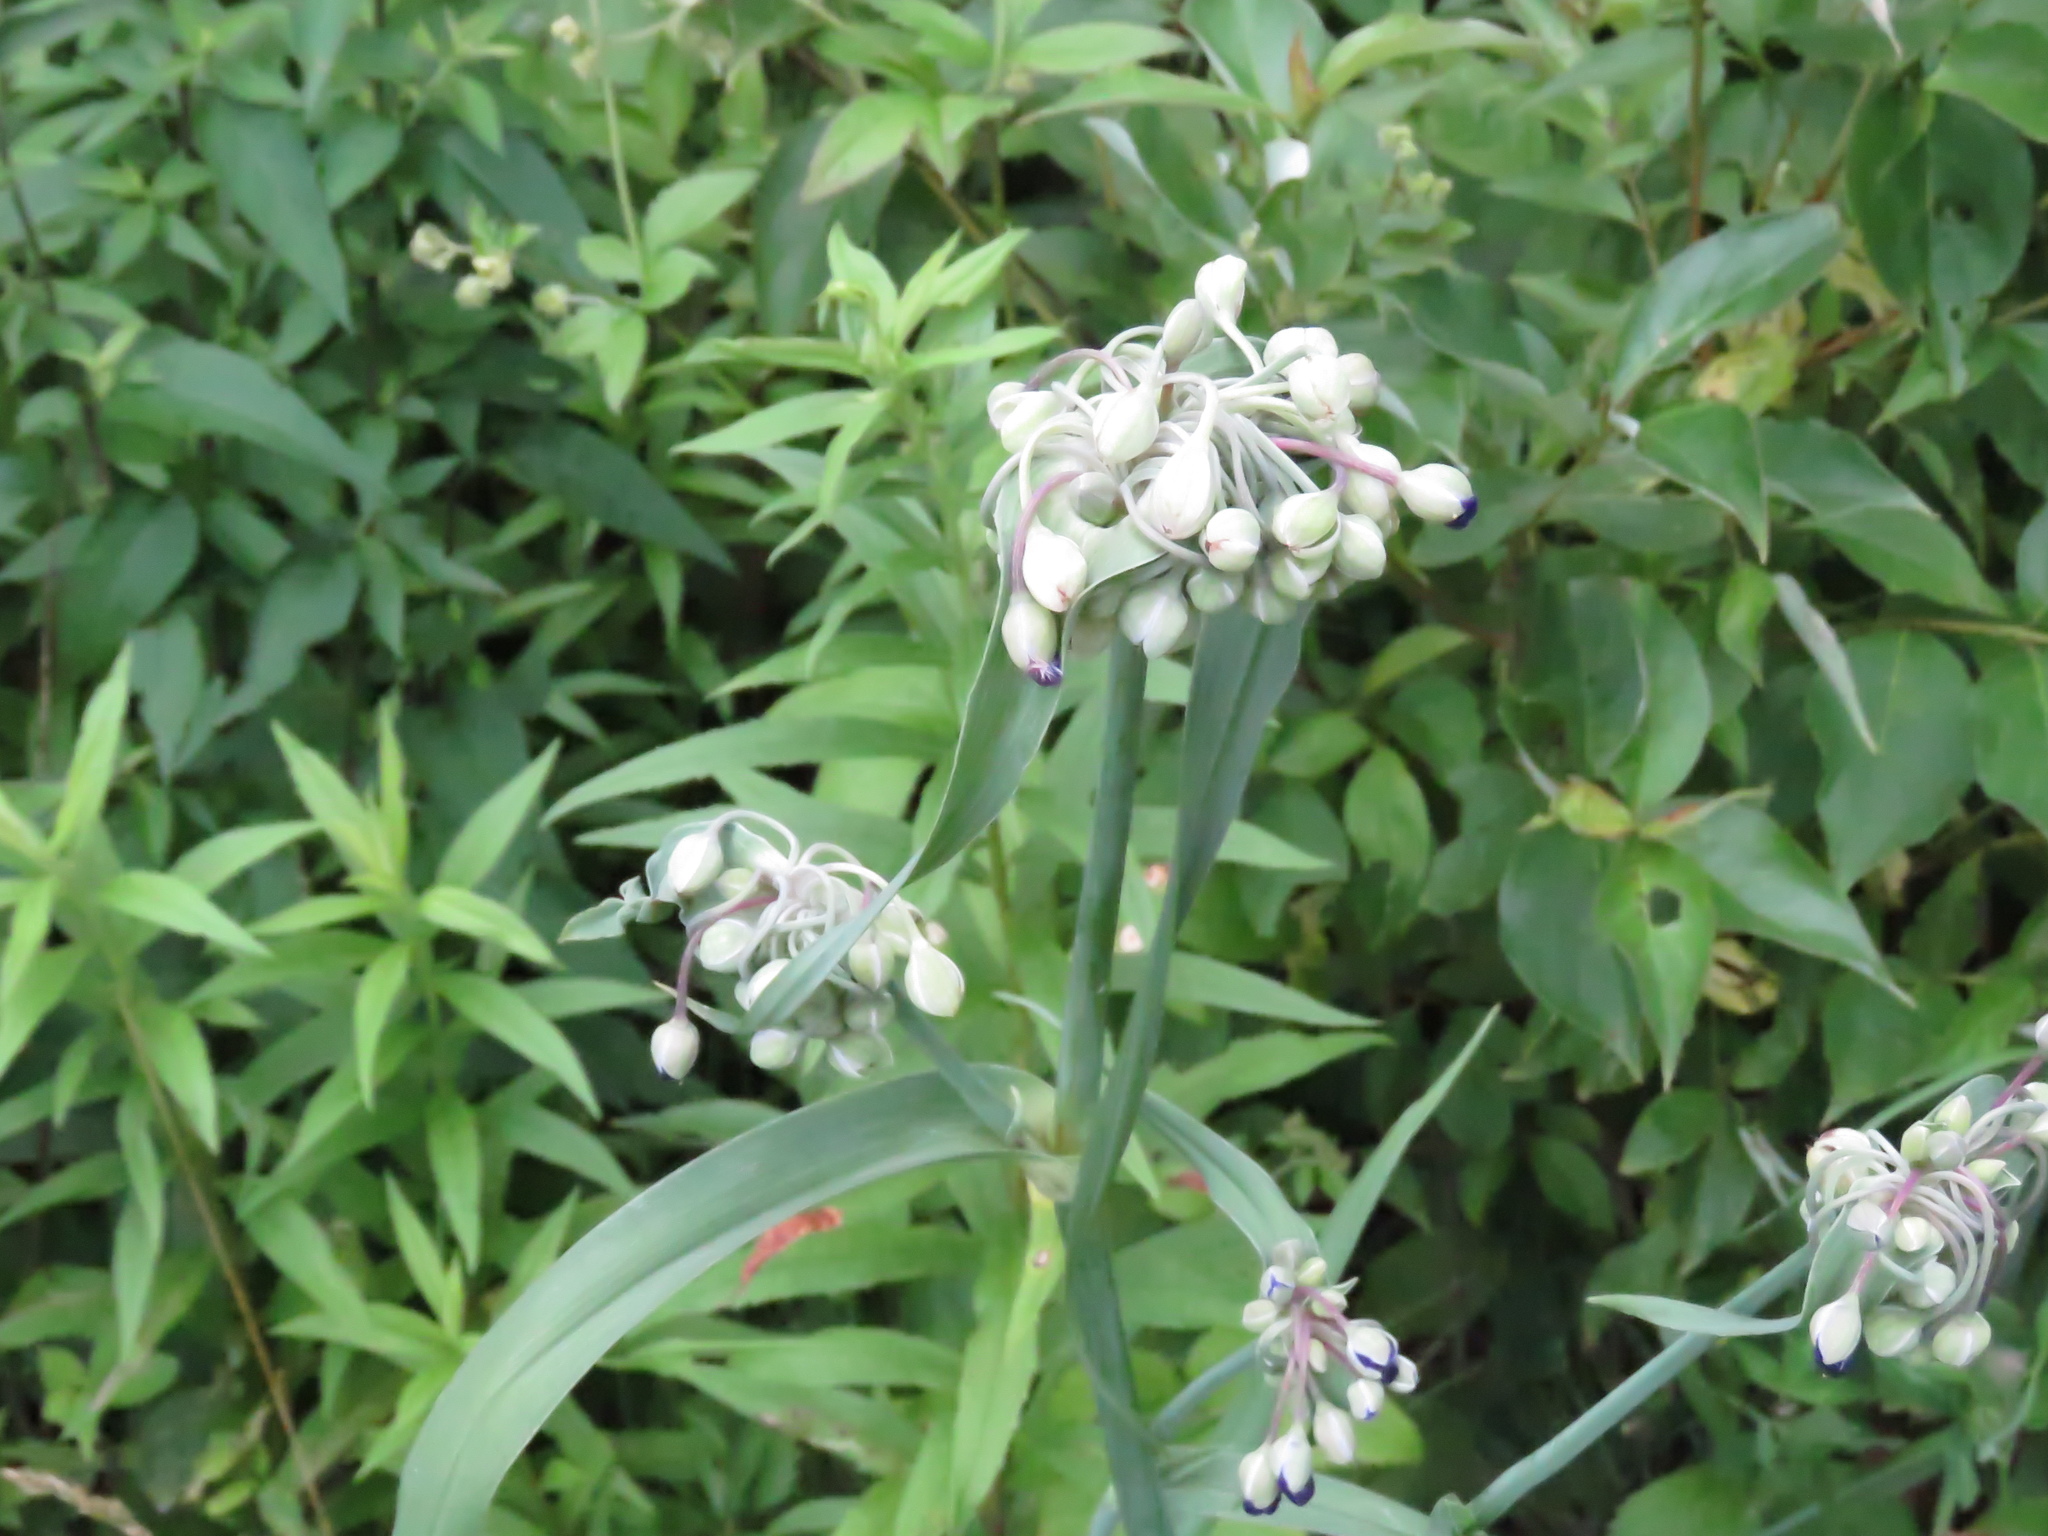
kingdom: Plantae
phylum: Tracheophyta
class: Liliopsida
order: Commelinales
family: Commelinaceae
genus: Tradescantia
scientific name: Tradescantia ohiensis
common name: Ohio spiderwort
